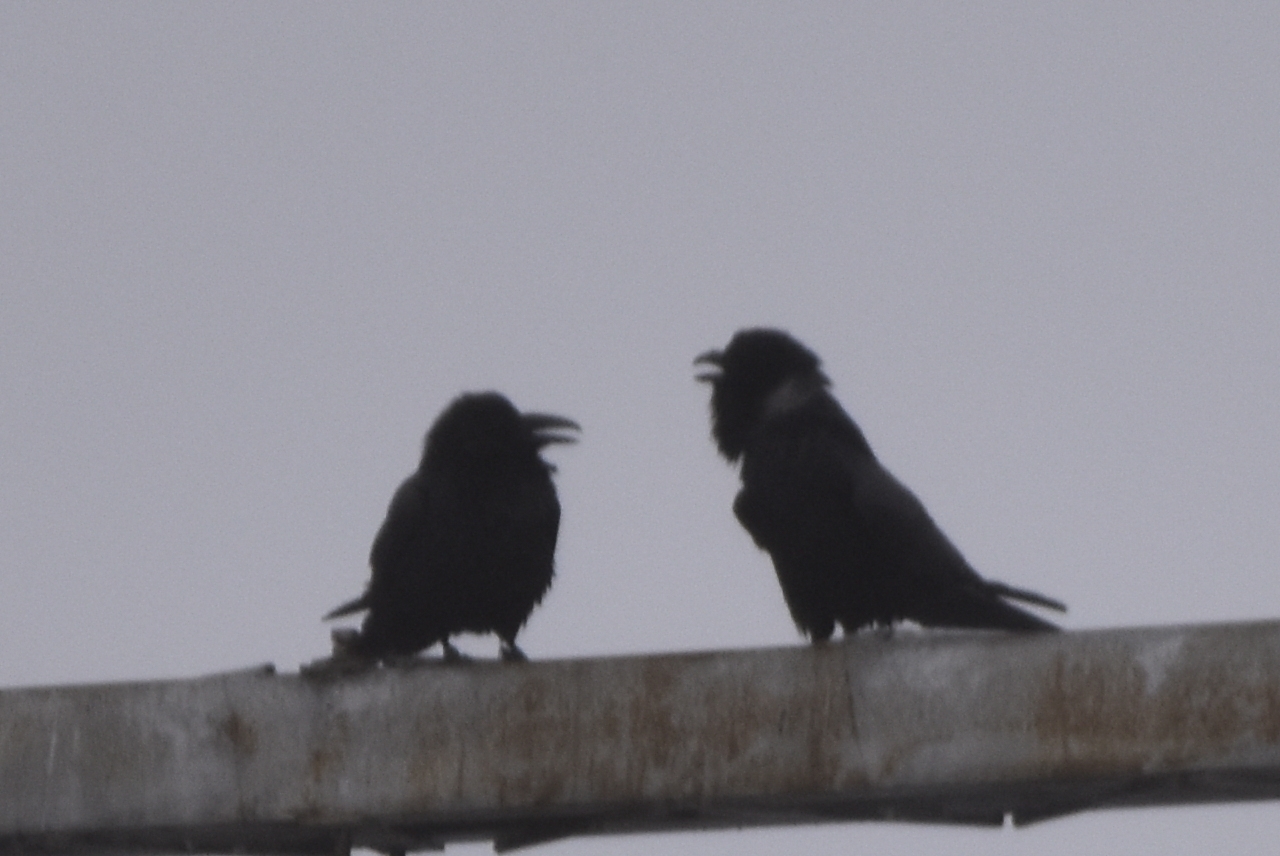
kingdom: Animalia
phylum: Chordata
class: Aves
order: Passeriformes
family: Corvidae
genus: Corvus
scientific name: Corvus corax
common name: Common raven
